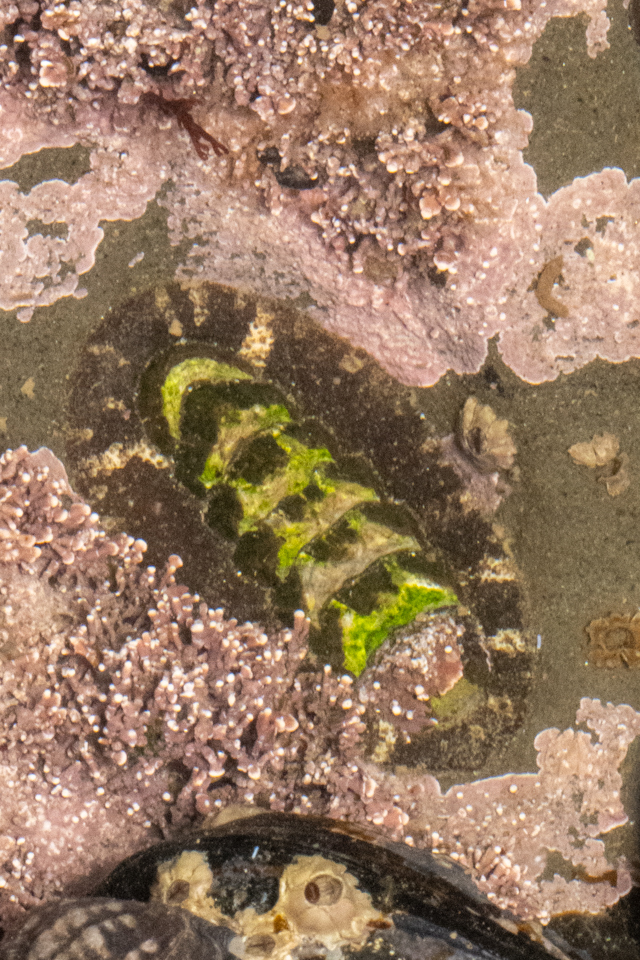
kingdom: Animalia
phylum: Mollusca
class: Polyplacophora
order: Chitonida
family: Tonicellidae
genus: Nuttallina
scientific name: Nuttallina californica
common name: California nuttall chiton
